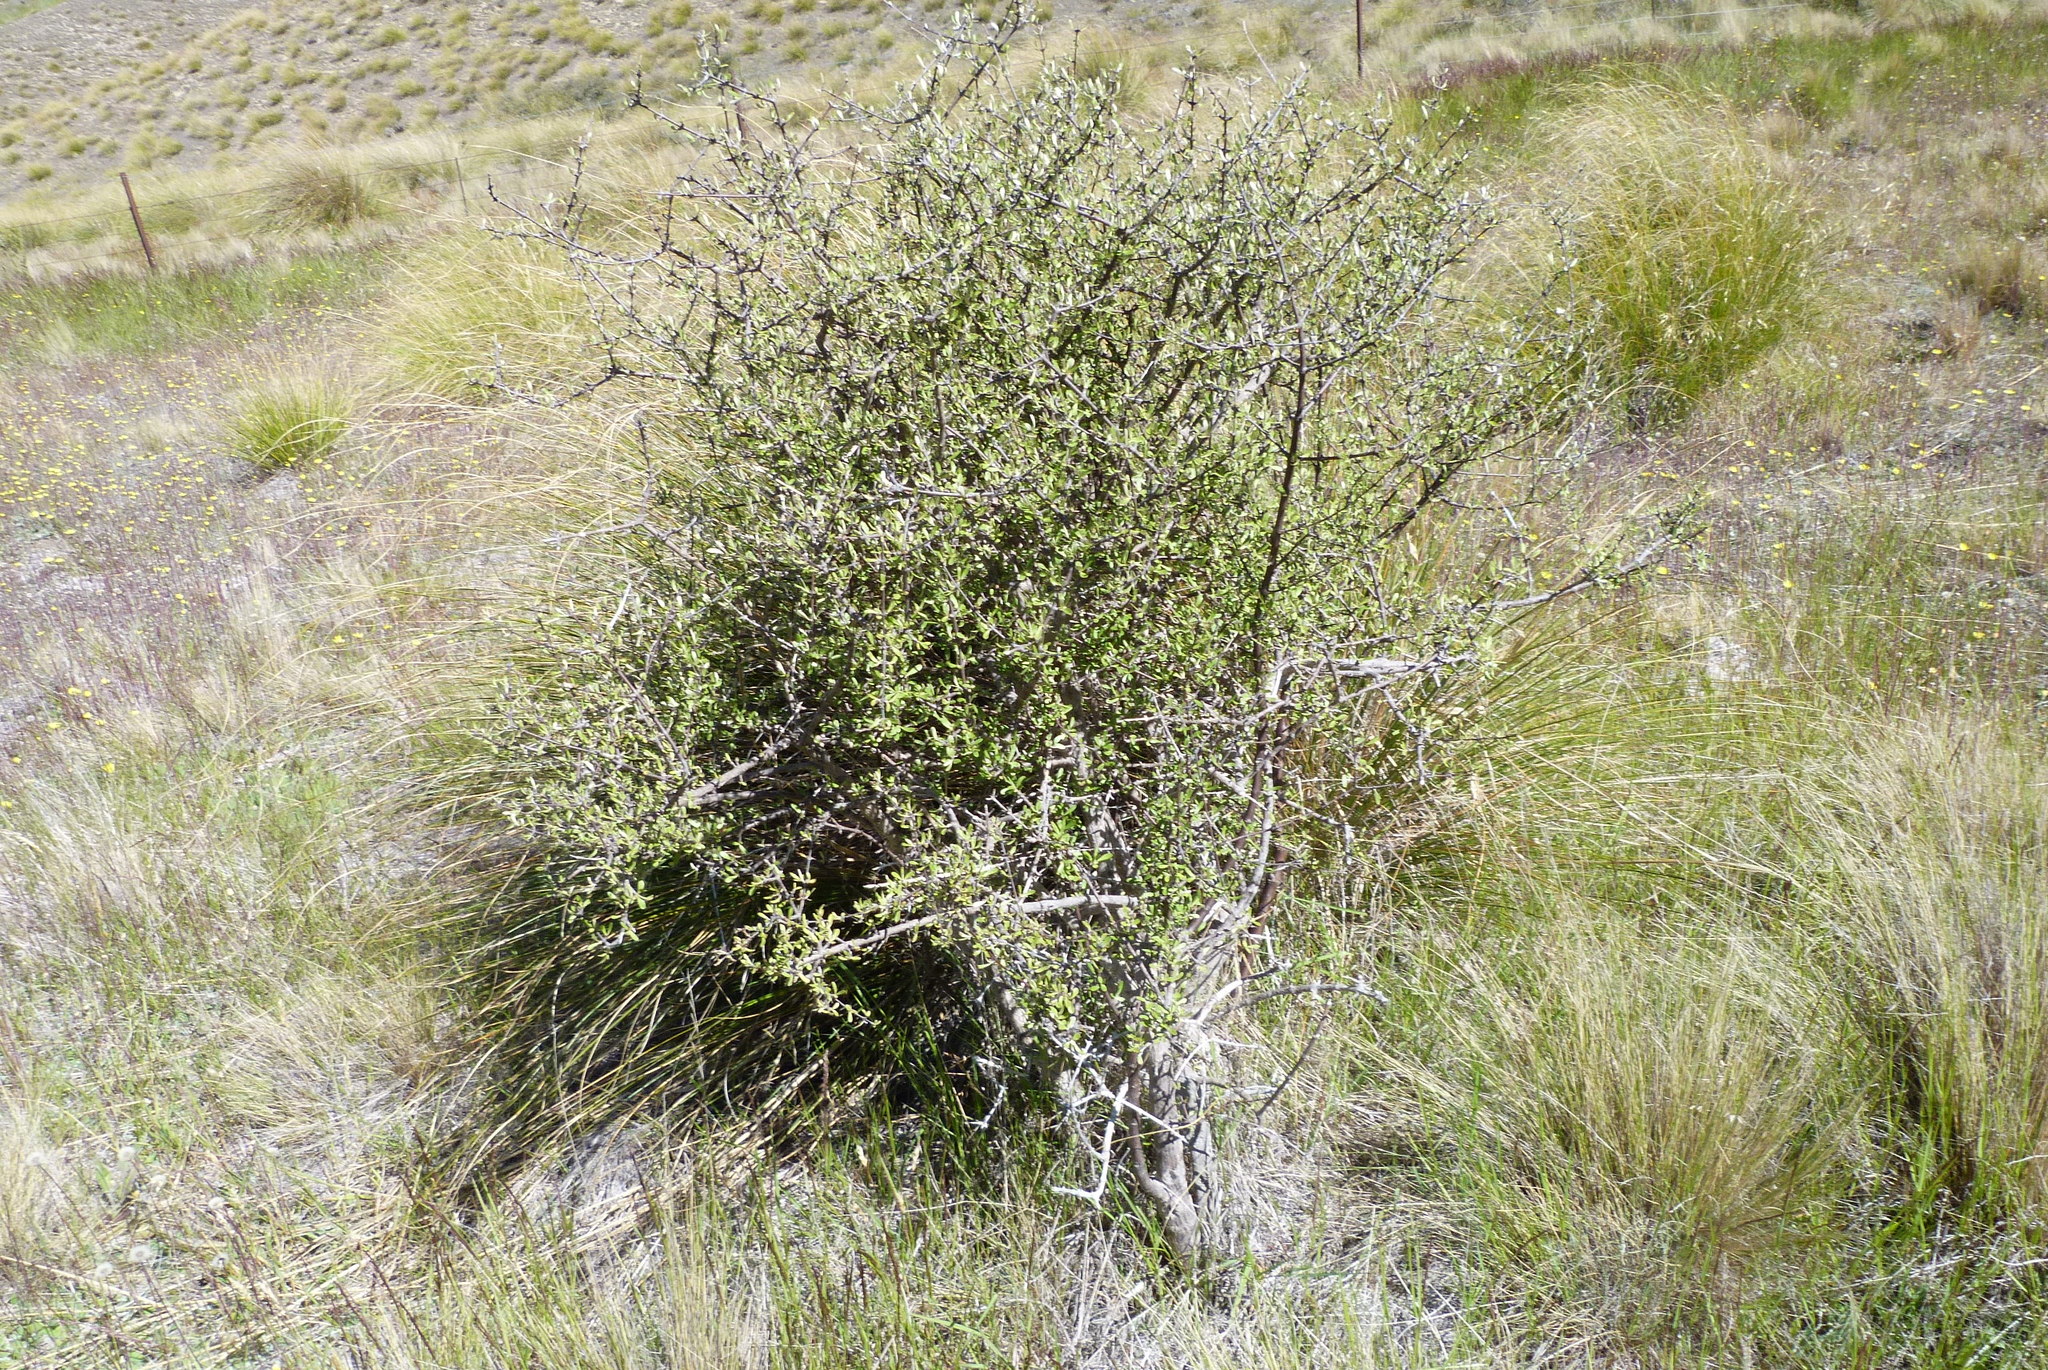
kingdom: Plantae
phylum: Tracheophyta
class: Magnoliopsida
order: Asterales
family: Asteraceae
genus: Olearia
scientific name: Olearia odorata
